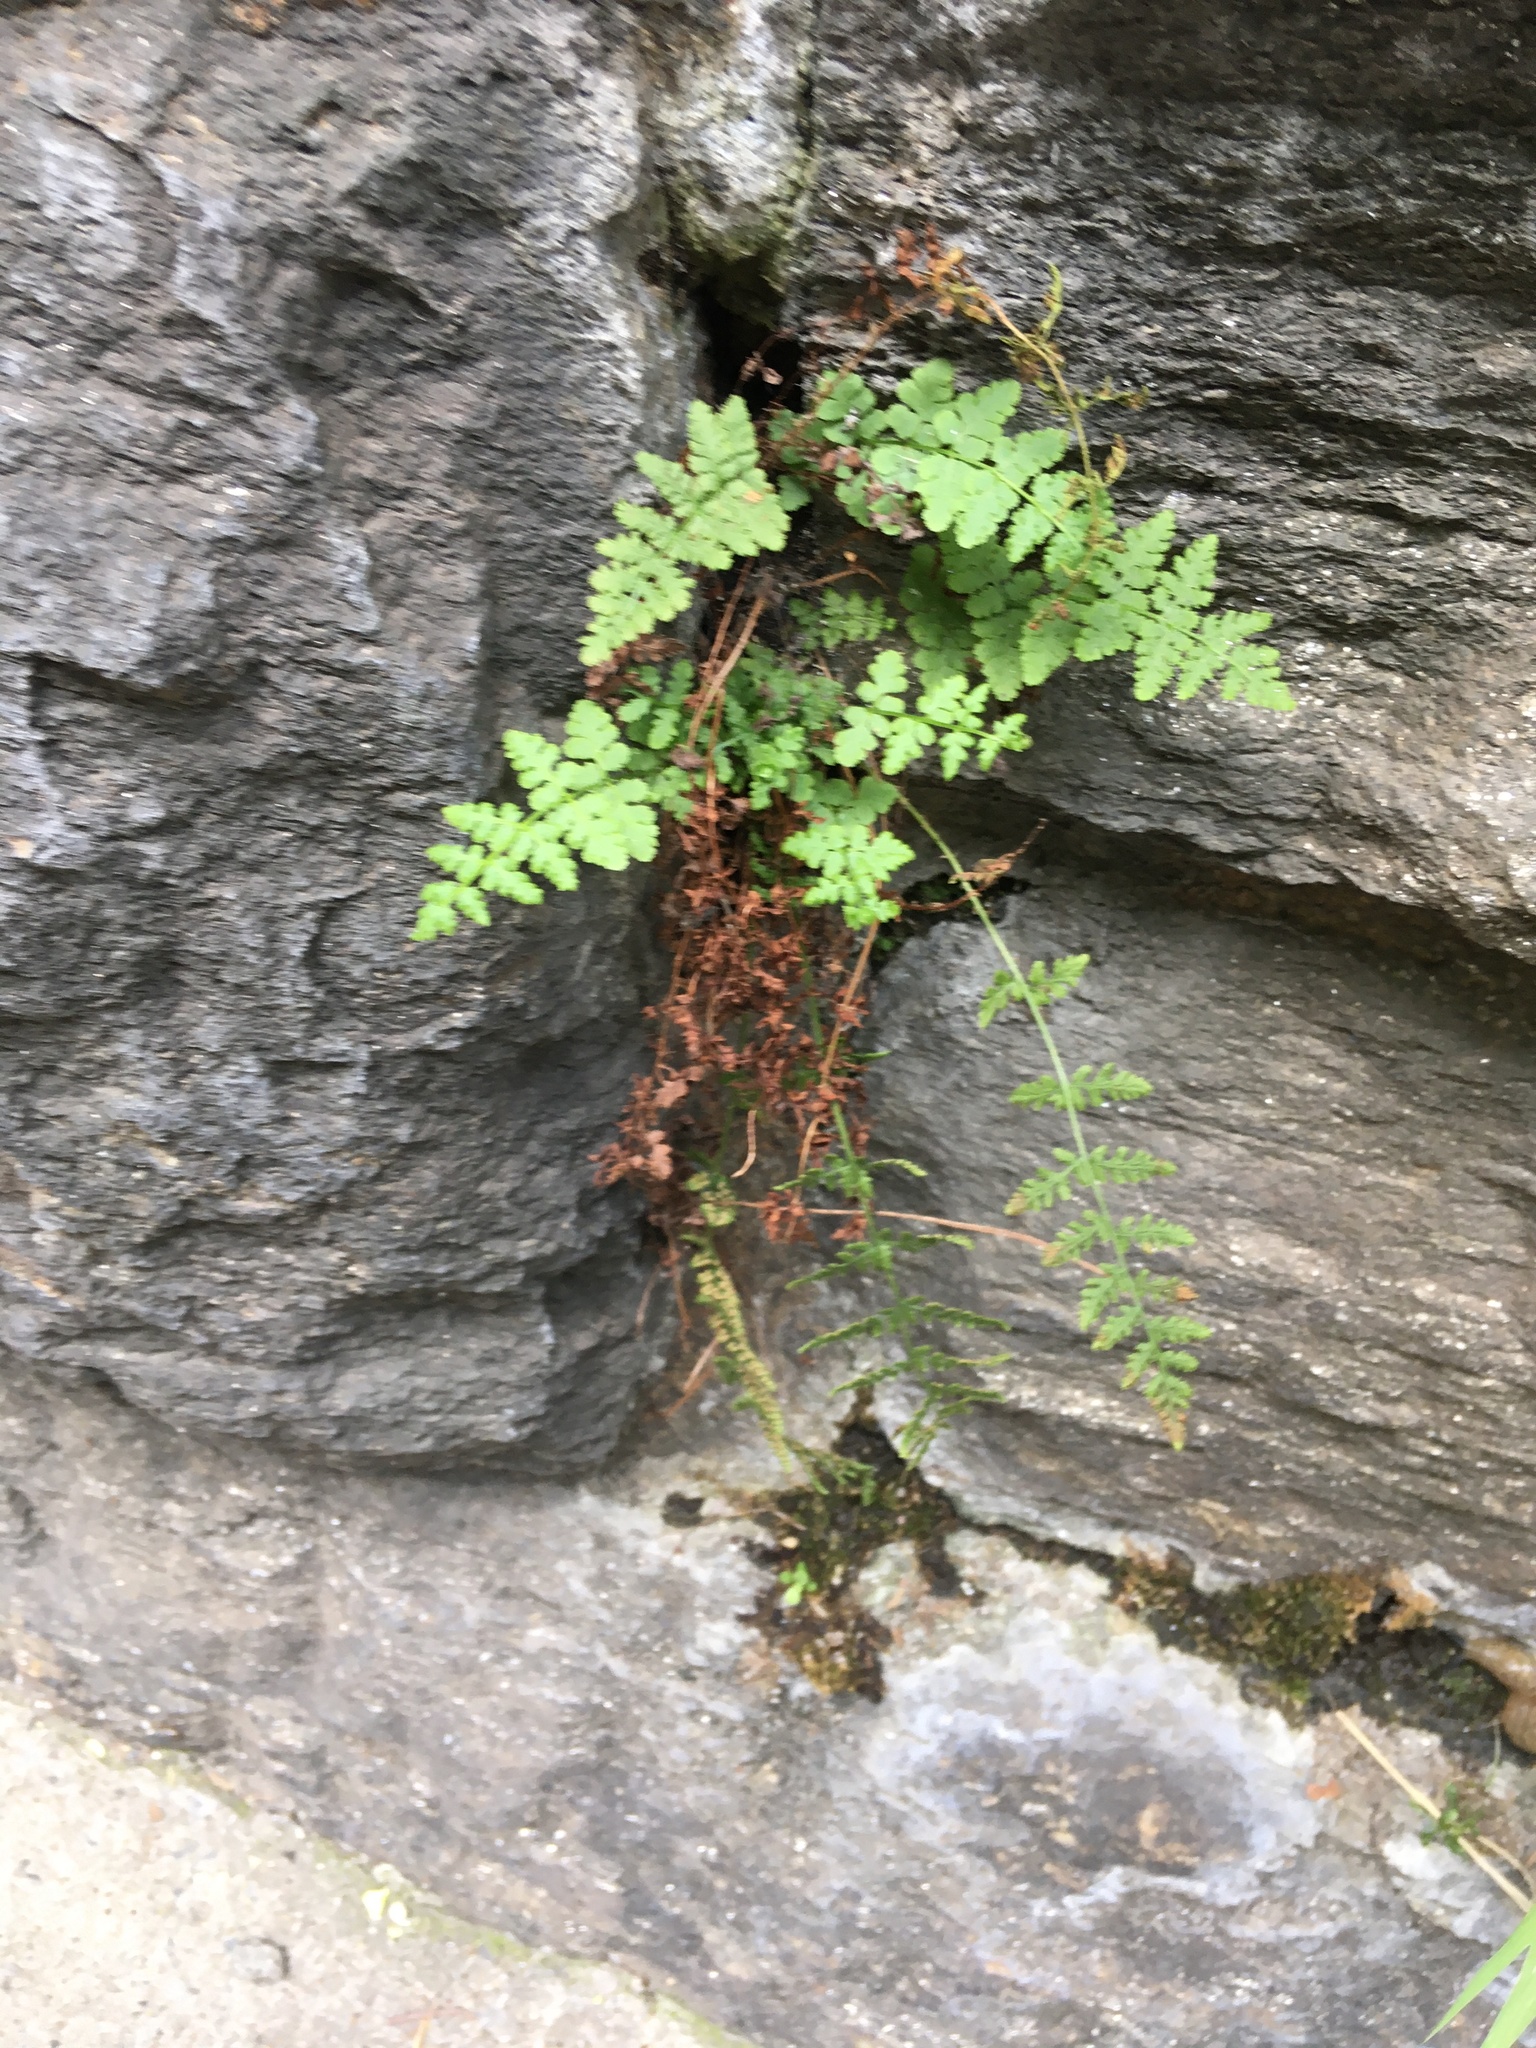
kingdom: Plantae
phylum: Tracheophyta
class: Polypodiopsida
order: Polypodiales
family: Woodsiaceae
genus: Physematium
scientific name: Physematium obtusum
